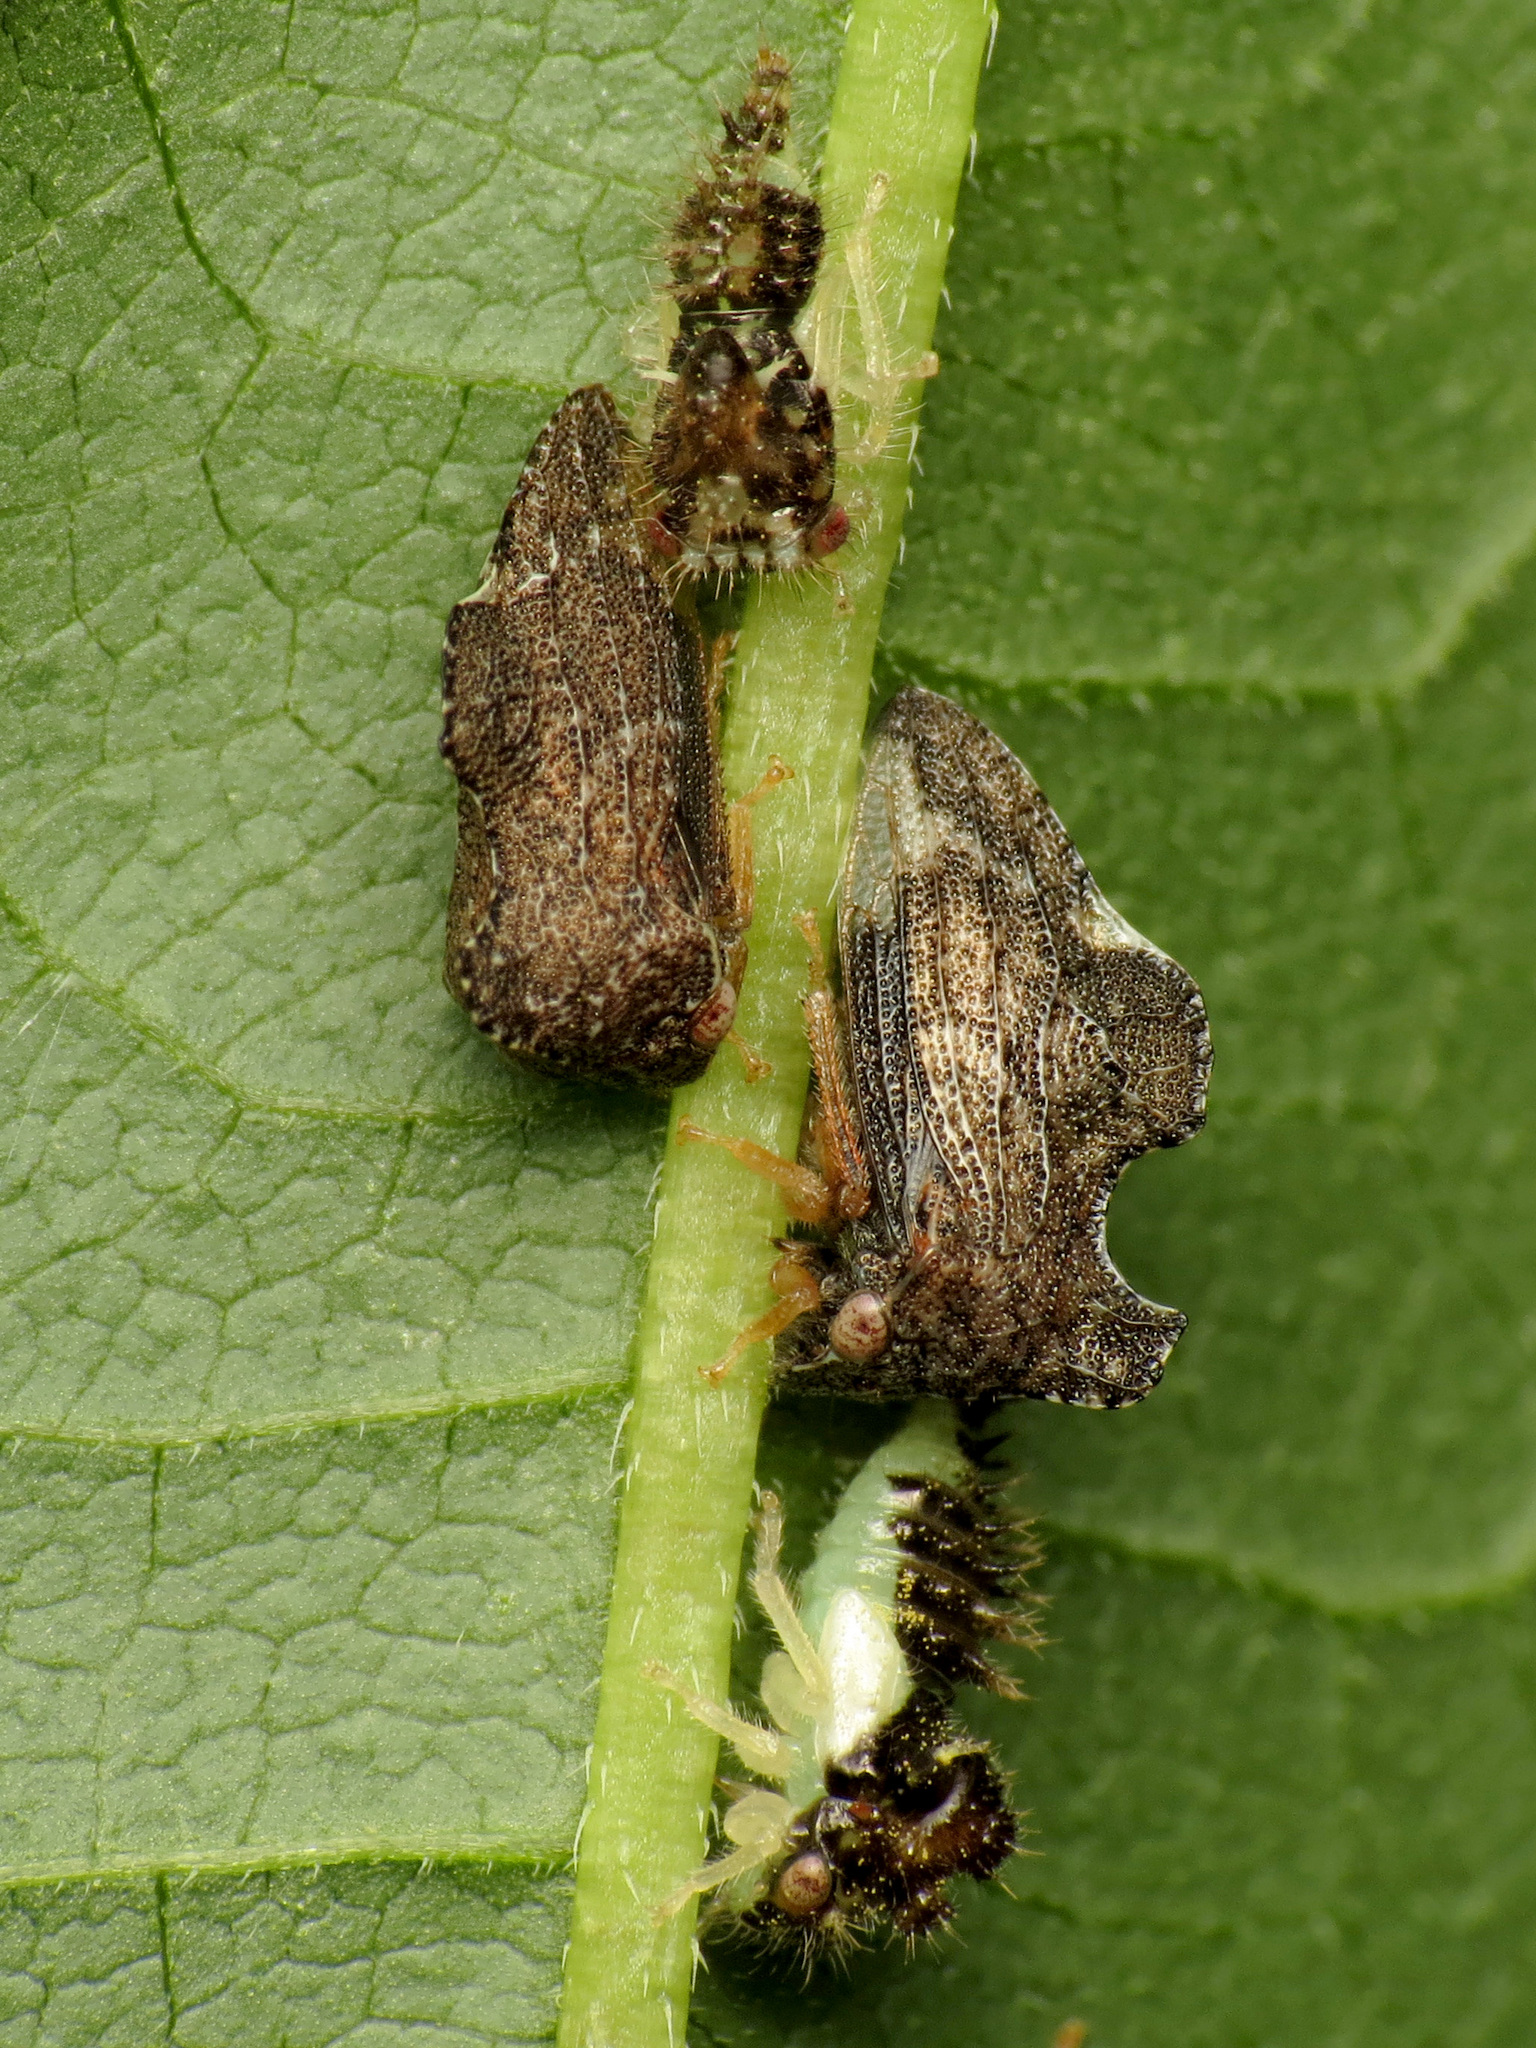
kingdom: Animalia
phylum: Arthropoda
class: Insecta
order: Hemiptera
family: Membracidae
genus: Entylia
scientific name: Entylia carinata
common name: Keeled treehopper
